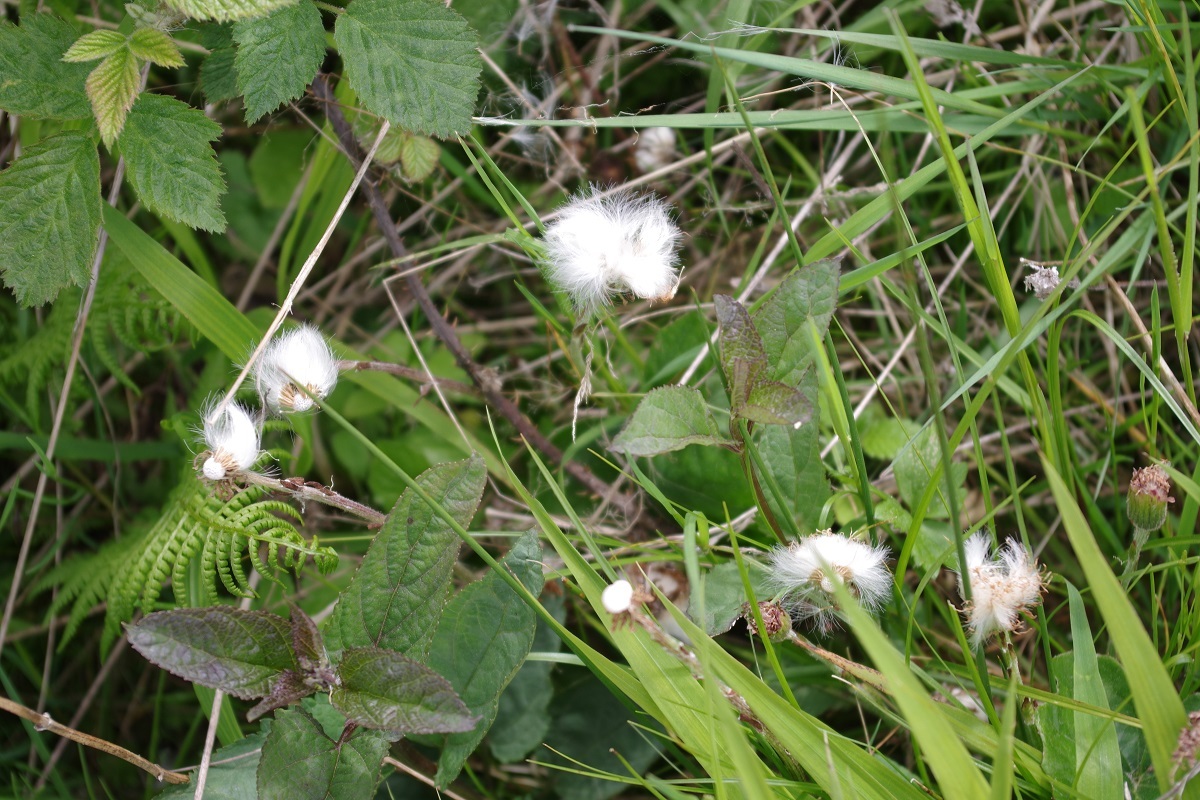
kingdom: Plantae
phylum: Tracheophyta
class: Magnoliopsida
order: Asterales
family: Asteraceae
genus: Tussilago
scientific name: Tussilago farfara
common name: Coltsfoot
